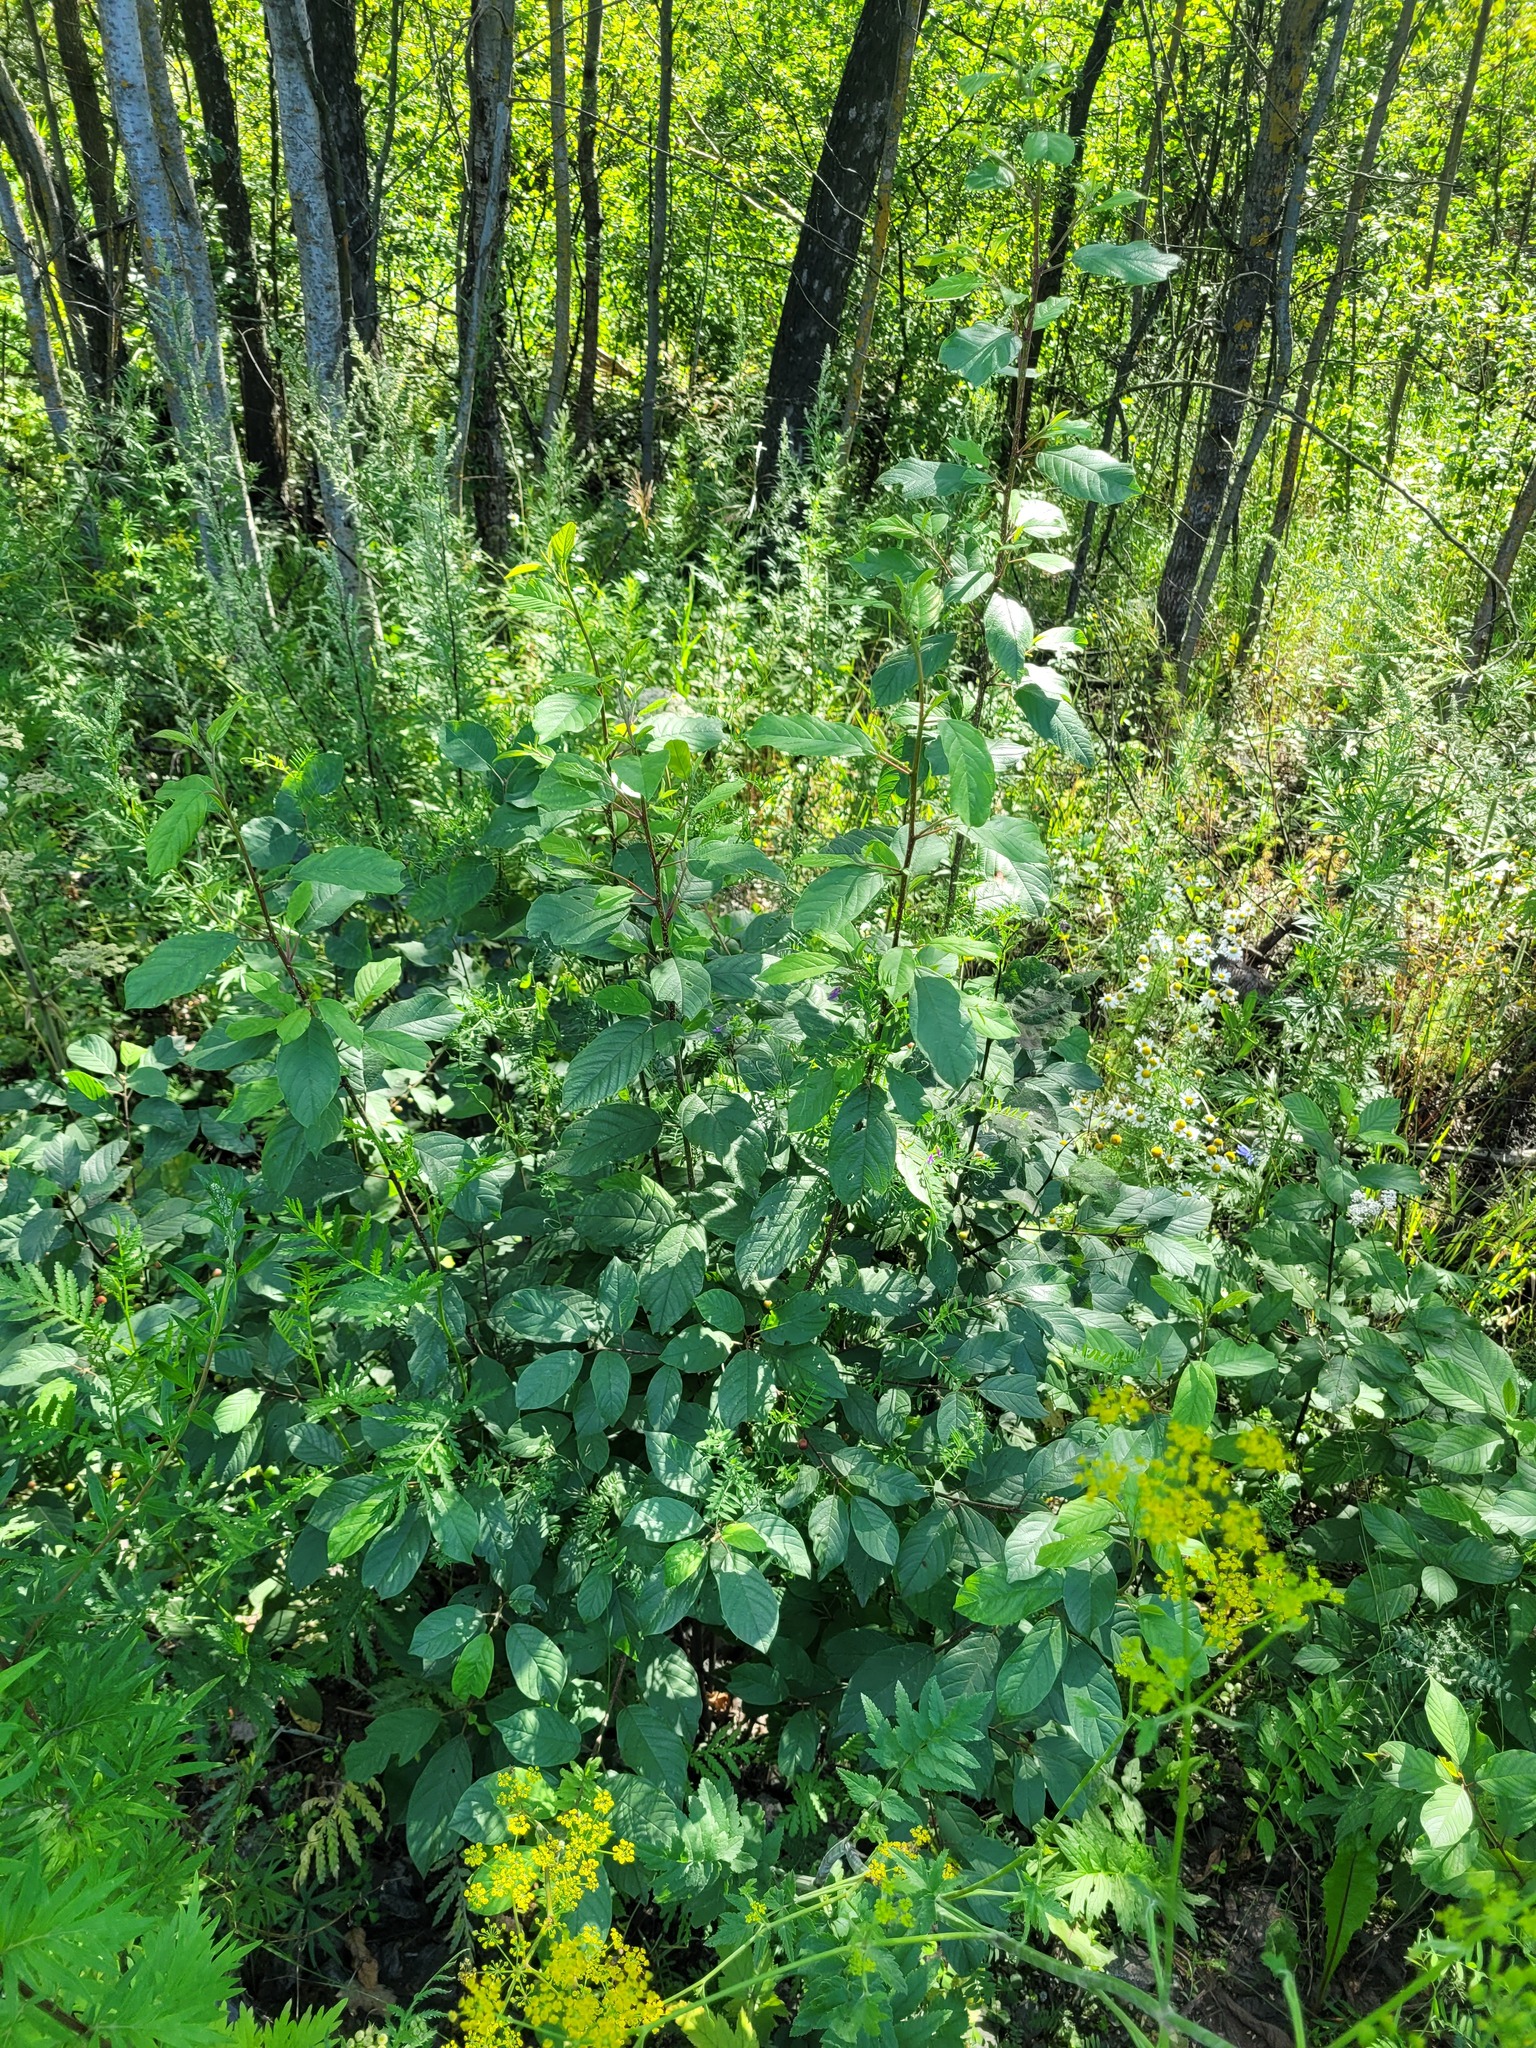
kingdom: Plantae
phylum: Tracheophyta
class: Magnoliopsida
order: Rosales
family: Rhamnaceae
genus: Frangula
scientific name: Frangula alnus
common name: Alder buckthorn
